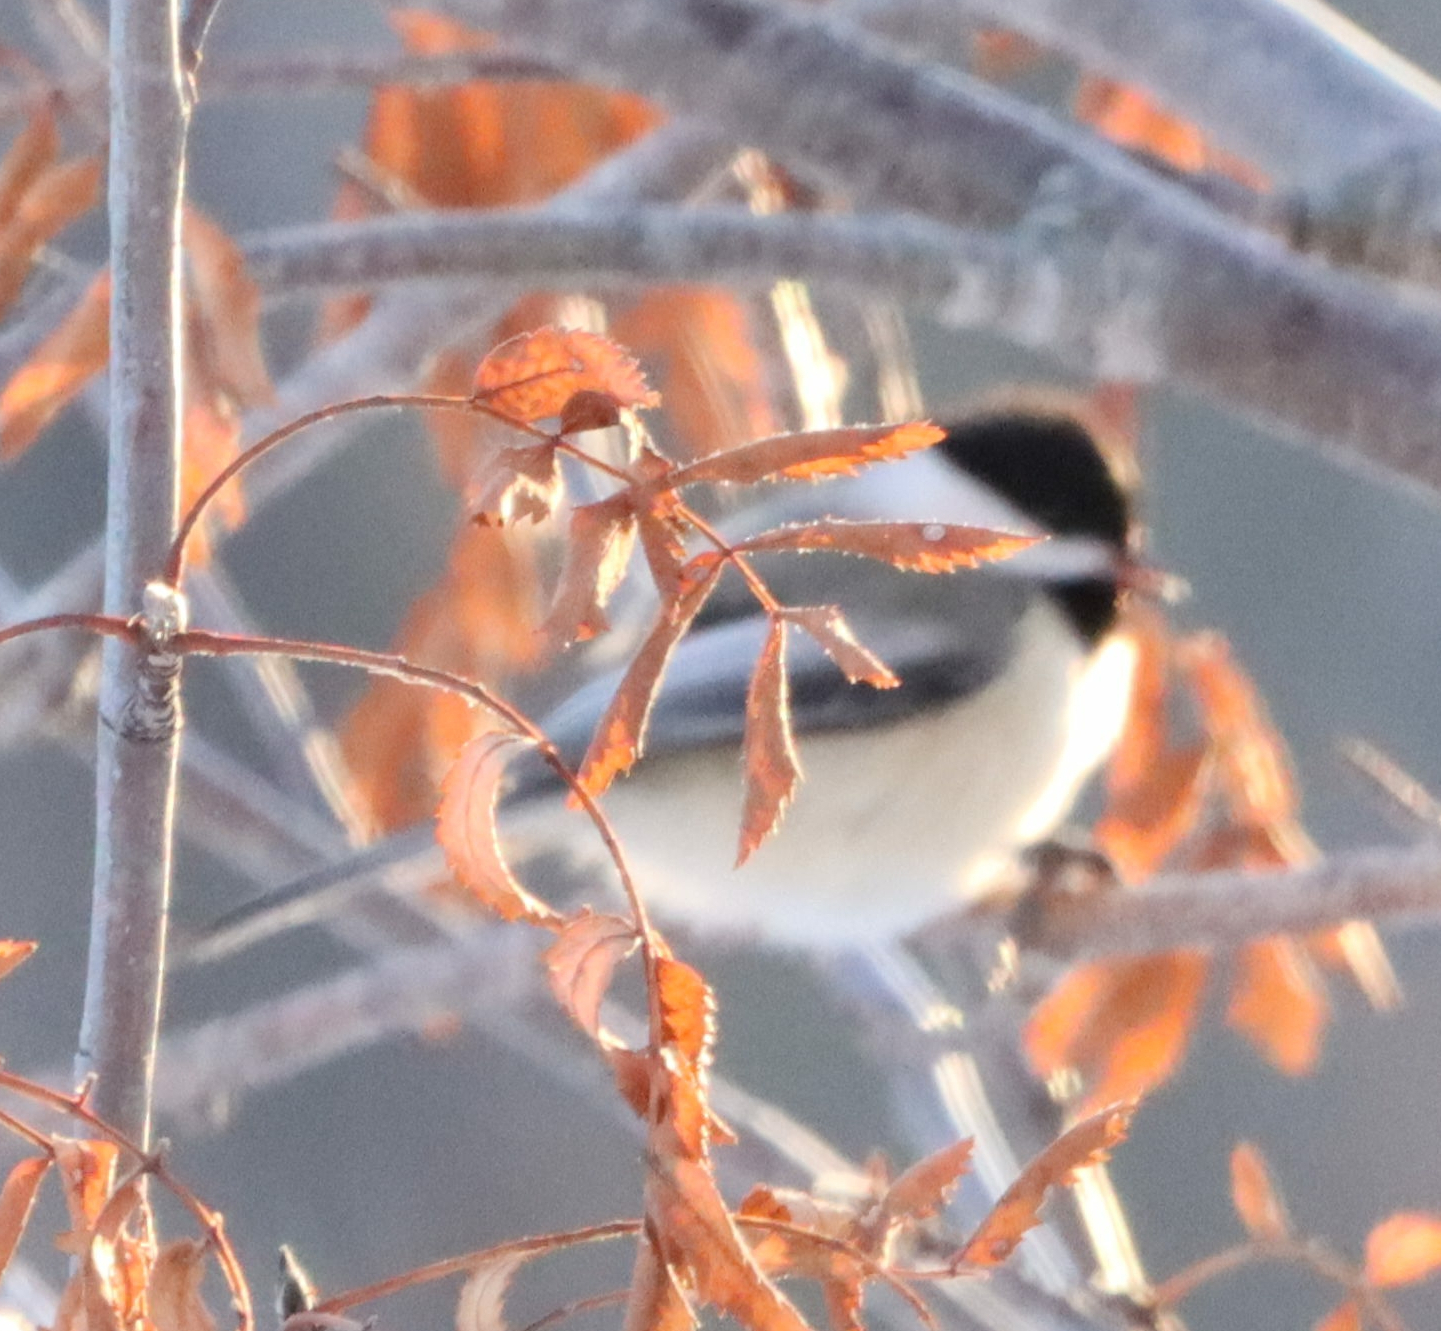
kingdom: Animalia
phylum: Chordata
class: Aves
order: Passeriformes
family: Paridae
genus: Poecile
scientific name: Poecile atricapillus
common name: Black-capped chickadee
